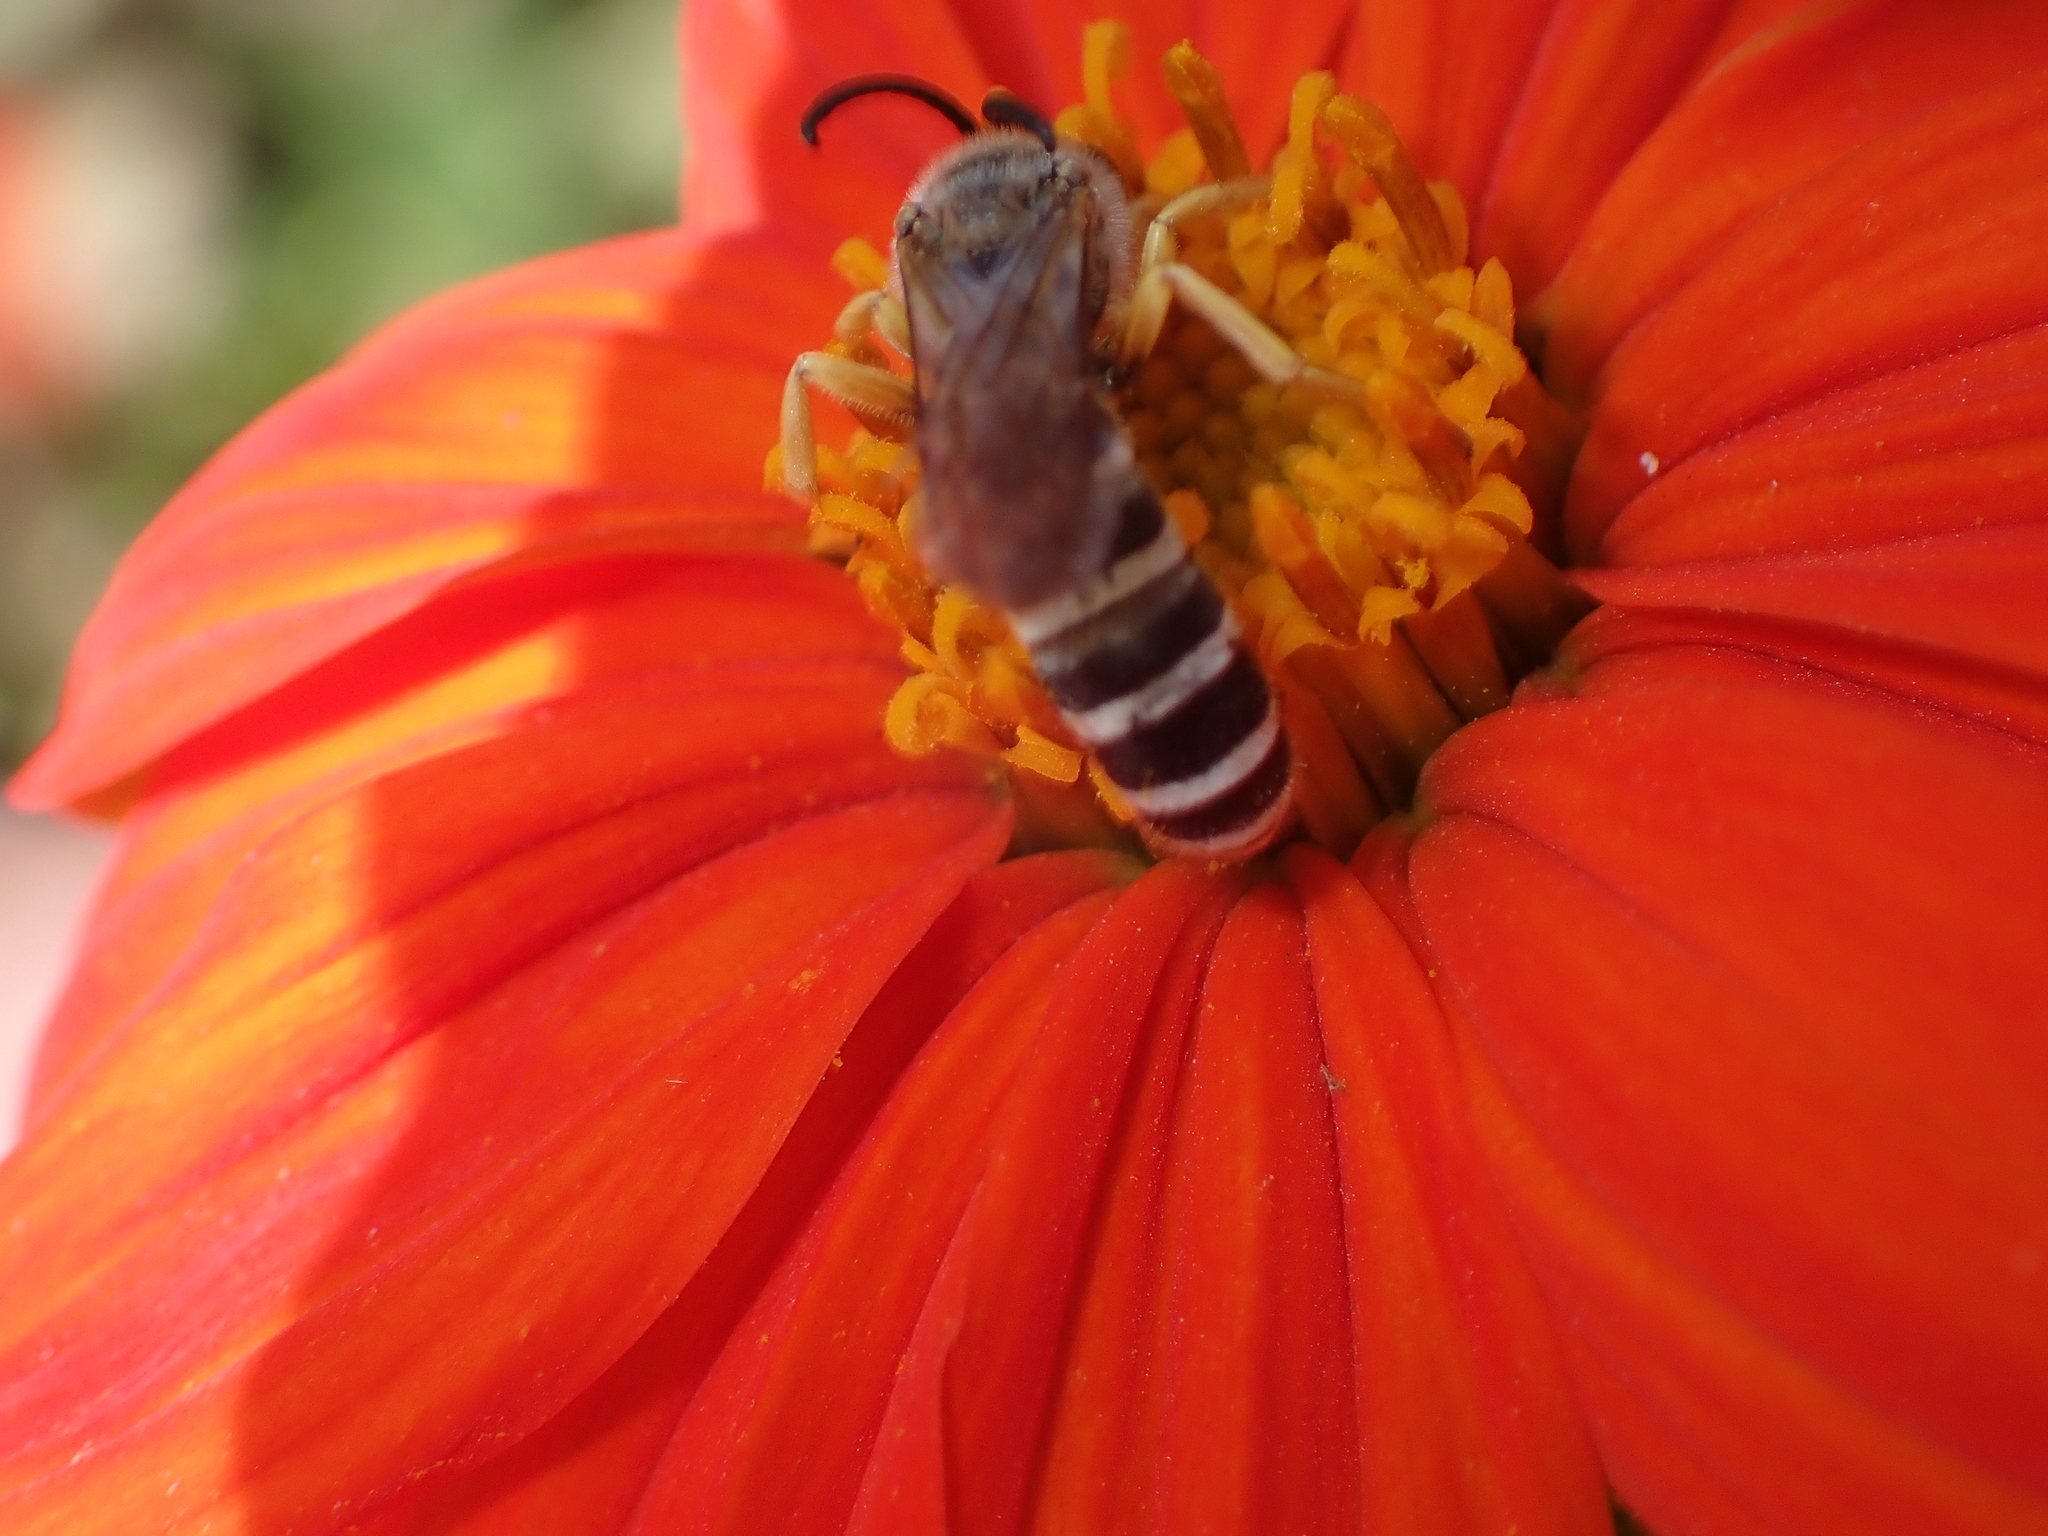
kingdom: Animalia
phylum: Arthropoda
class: Insecta
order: Hymenoptera
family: Halictidae
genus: Halictus
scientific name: Halictus scabiosae
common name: Great banded furrow bee
